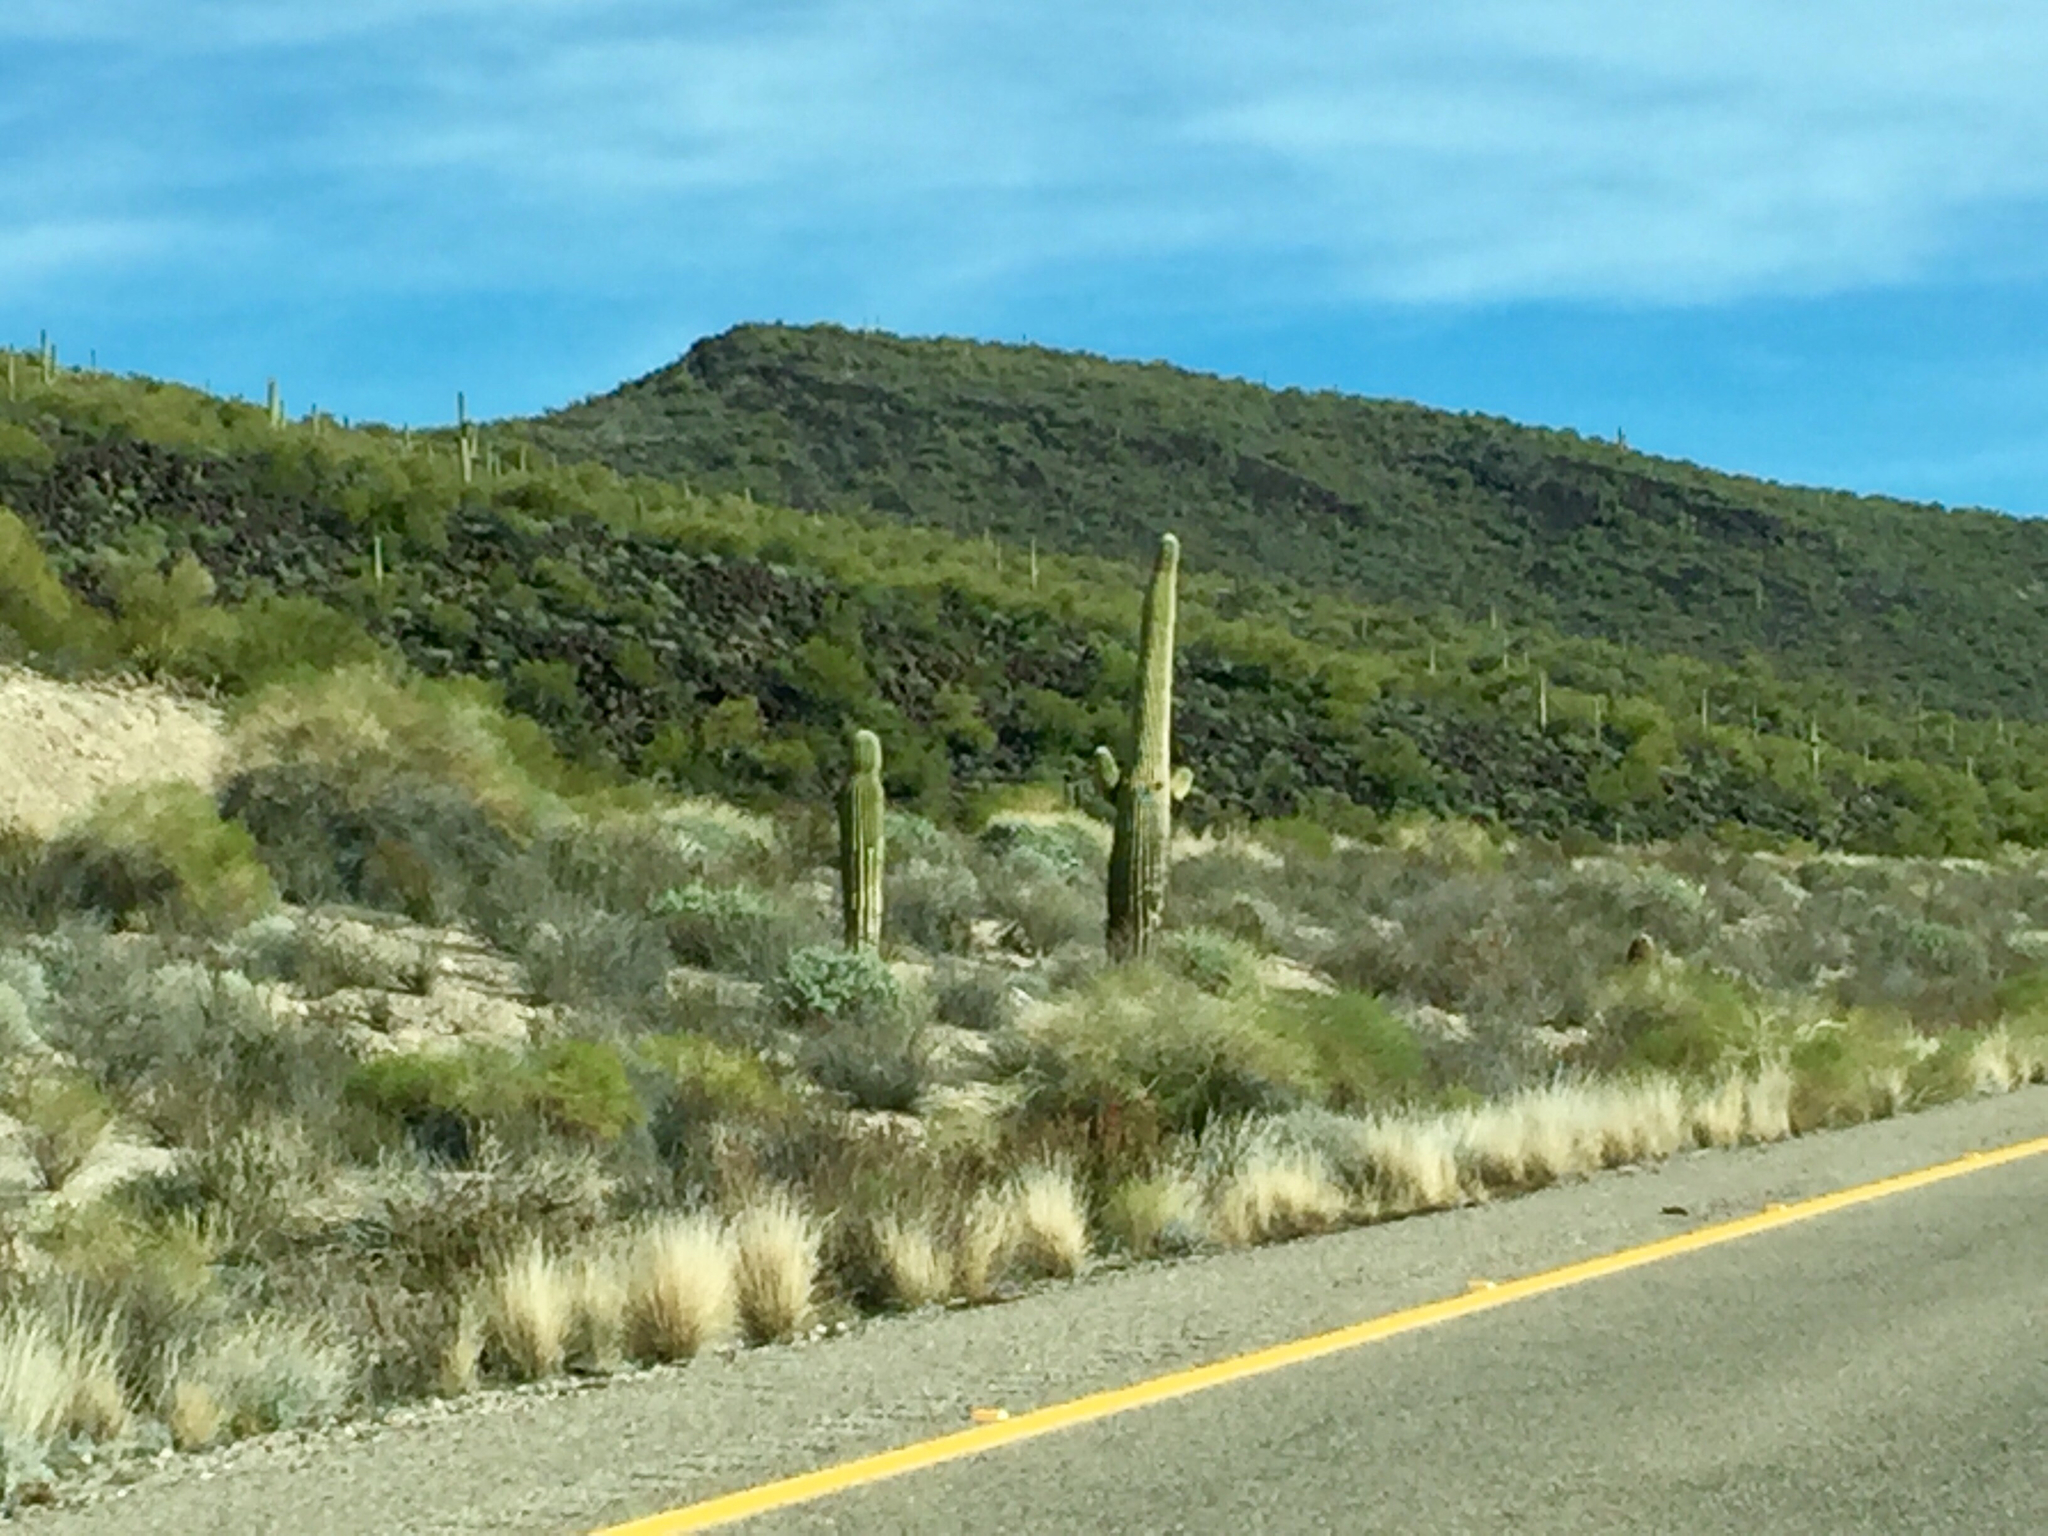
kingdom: Plantae
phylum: Tracheophyta
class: Magnoliopsida
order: Caryophyllales
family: Cactaceae
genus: Carnegiea
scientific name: Carnegiea gigantea
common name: Saguaro
